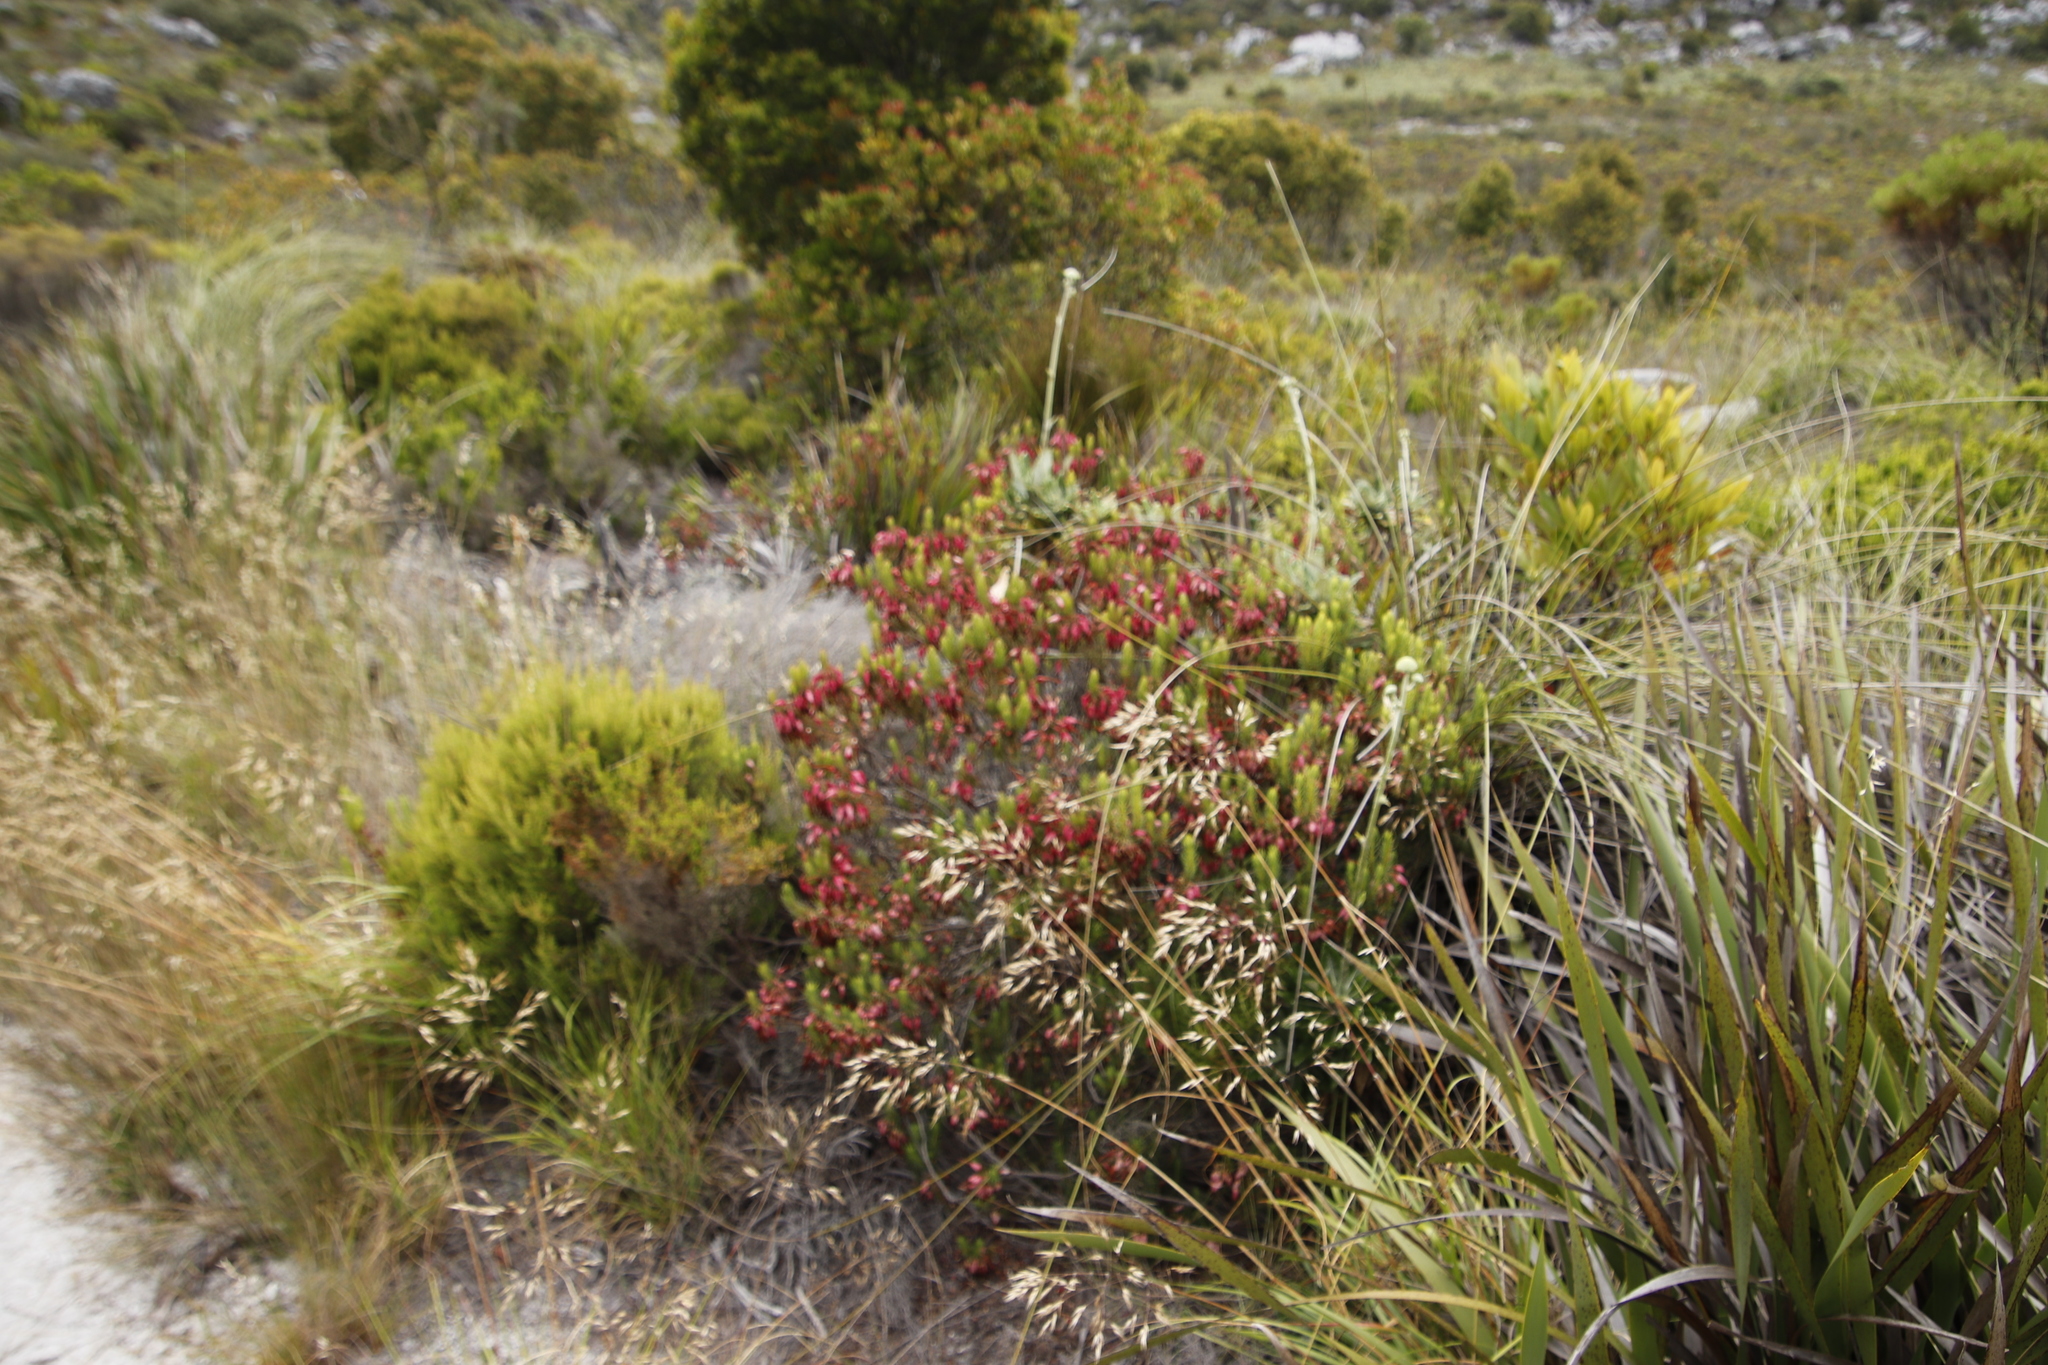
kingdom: Plantae
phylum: Tracheophyta
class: Magnoliopsida
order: Ericales
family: Ericaceae
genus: Erica
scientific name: Erica plukenetii
